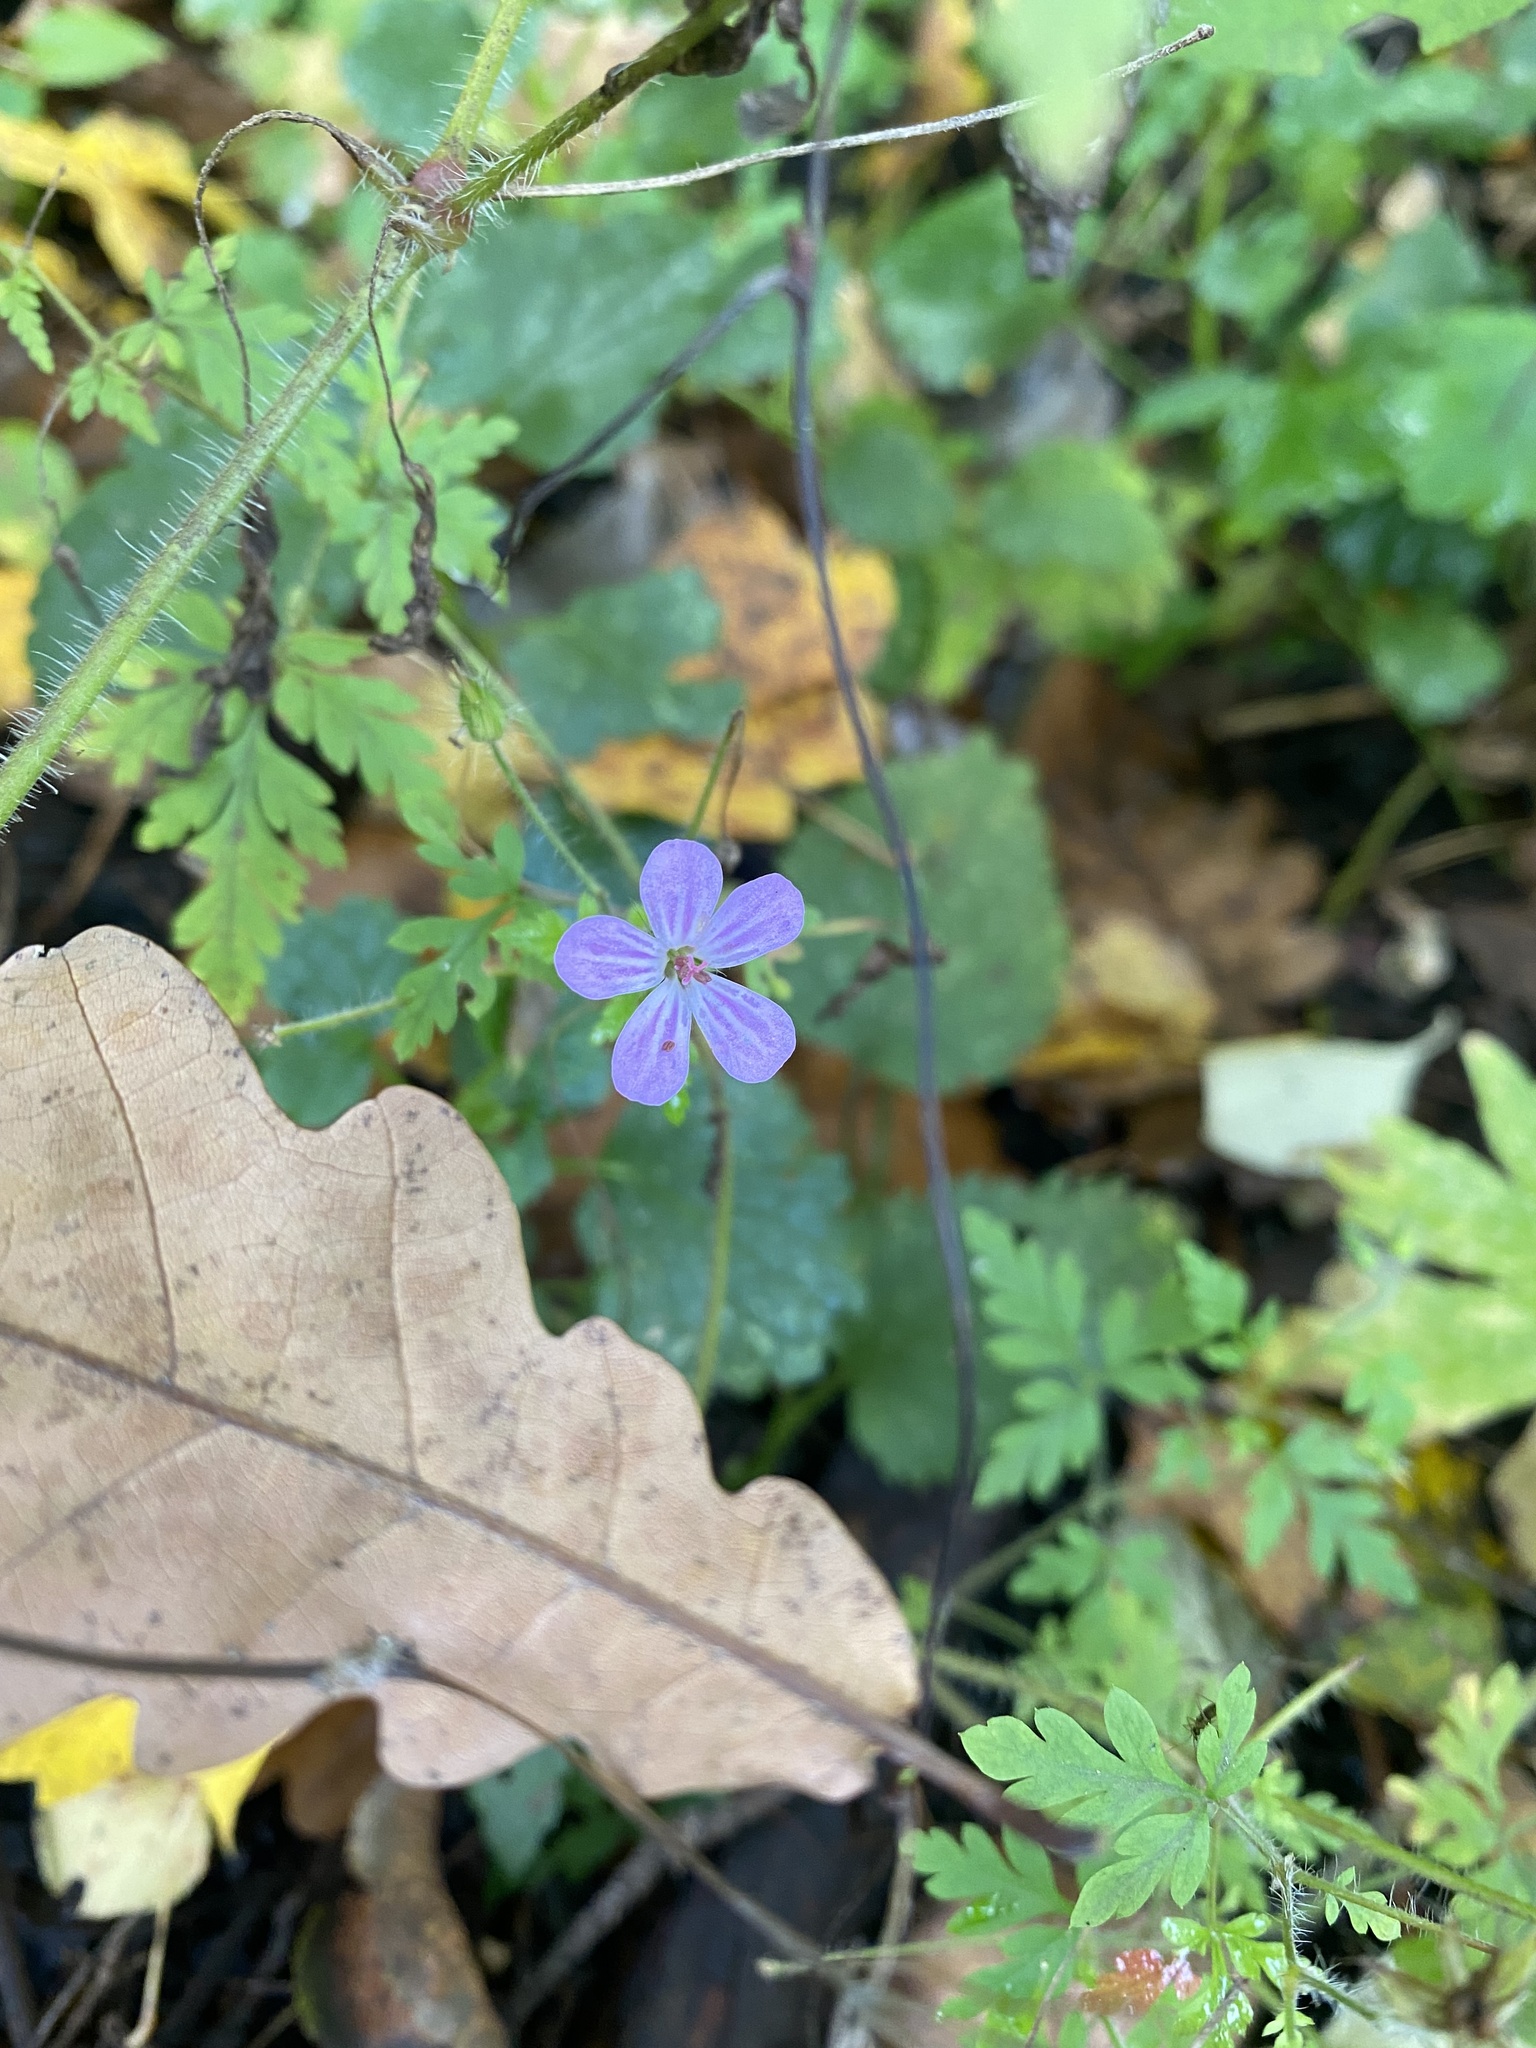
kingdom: Plantae
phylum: Tracheophyta
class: Magnoliopsida
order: Geraniales
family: Geraniaceae
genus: Geranium
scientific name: Geranium robertianum
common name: Herb-robert
